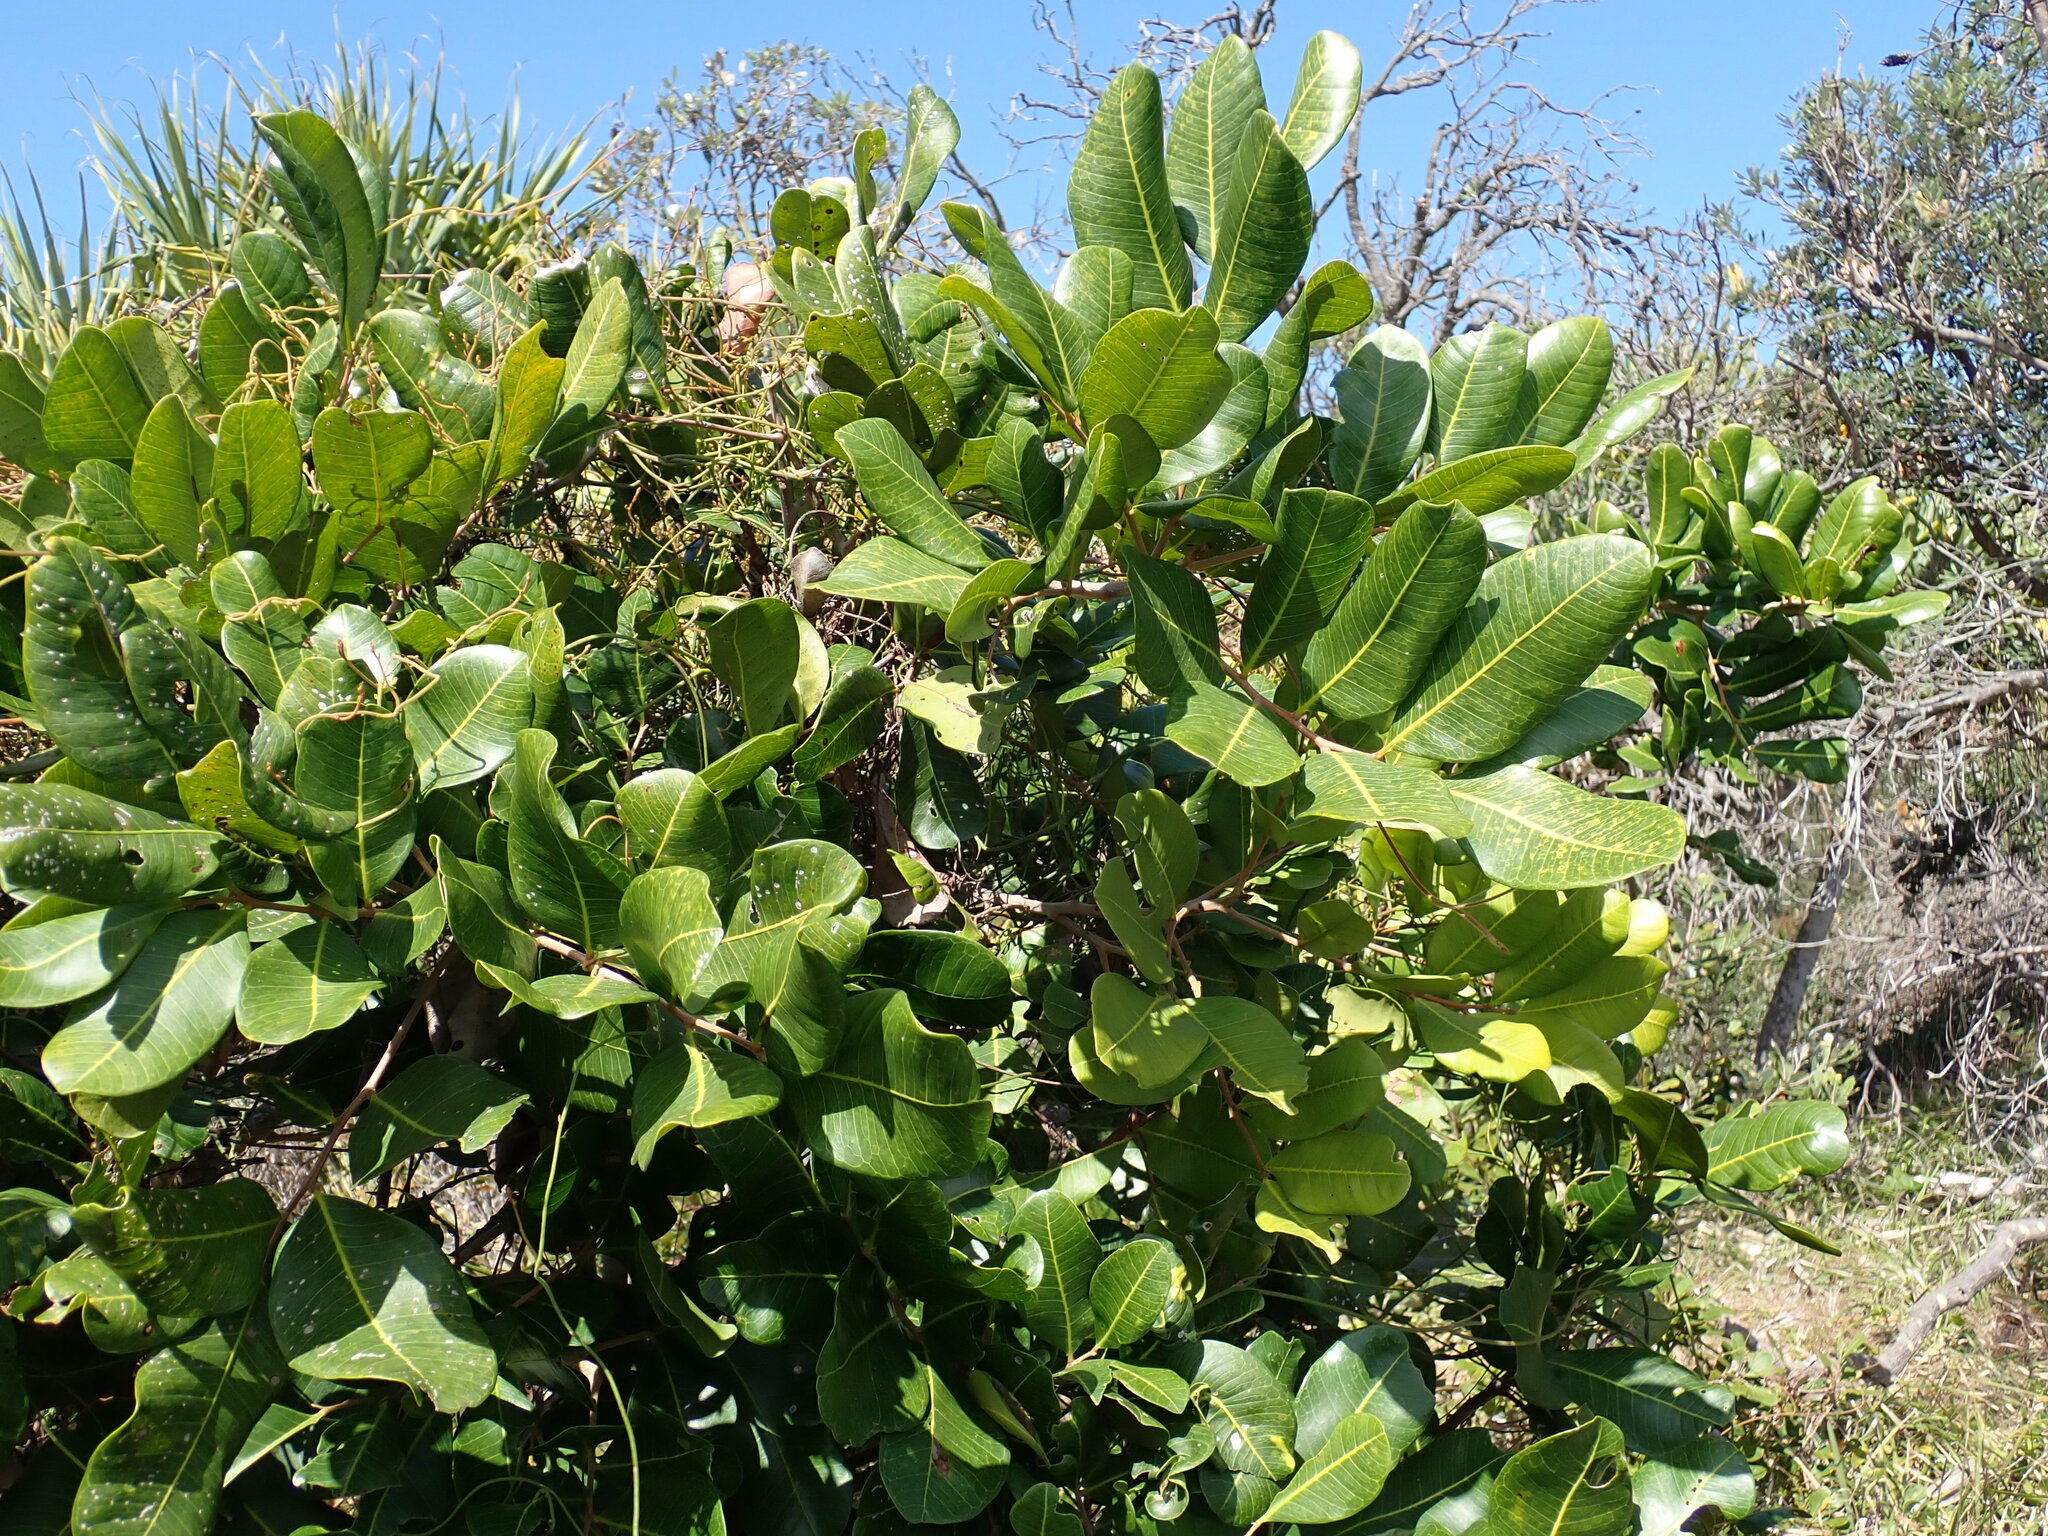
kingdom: Plantae
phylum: Tracheophyta
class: Magnoliopsida
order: Sapindales
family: Sapindaceae
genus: Cupaniopsis
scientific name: Cupaniopsis anacardioides
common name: Carrotwood
